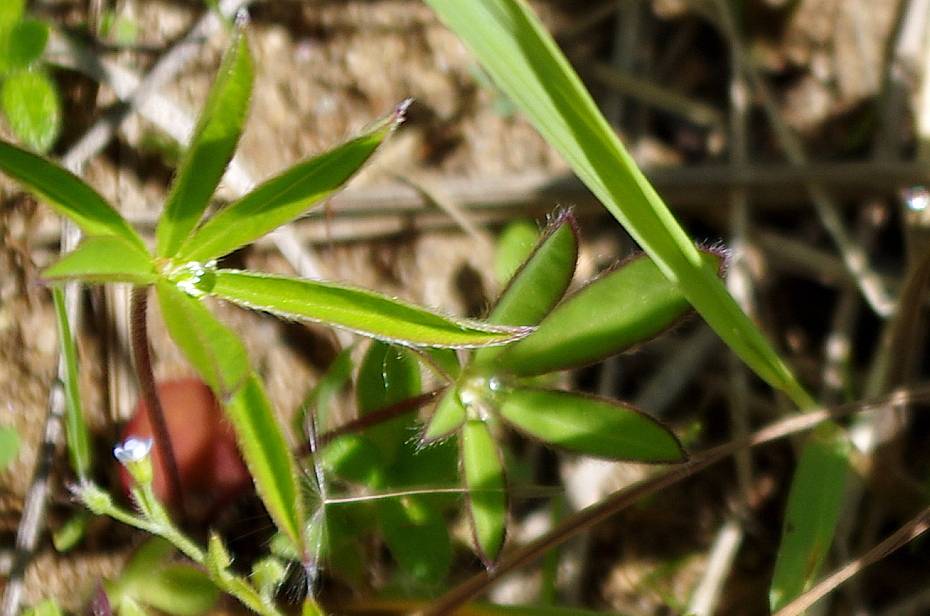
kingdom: Plantae
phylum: Tracheophyta
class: Magnoliopsida
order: Fabales
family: Fabaceae
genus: Lupinus
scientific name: Lupinus polyphyllus
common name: Garden lupin
